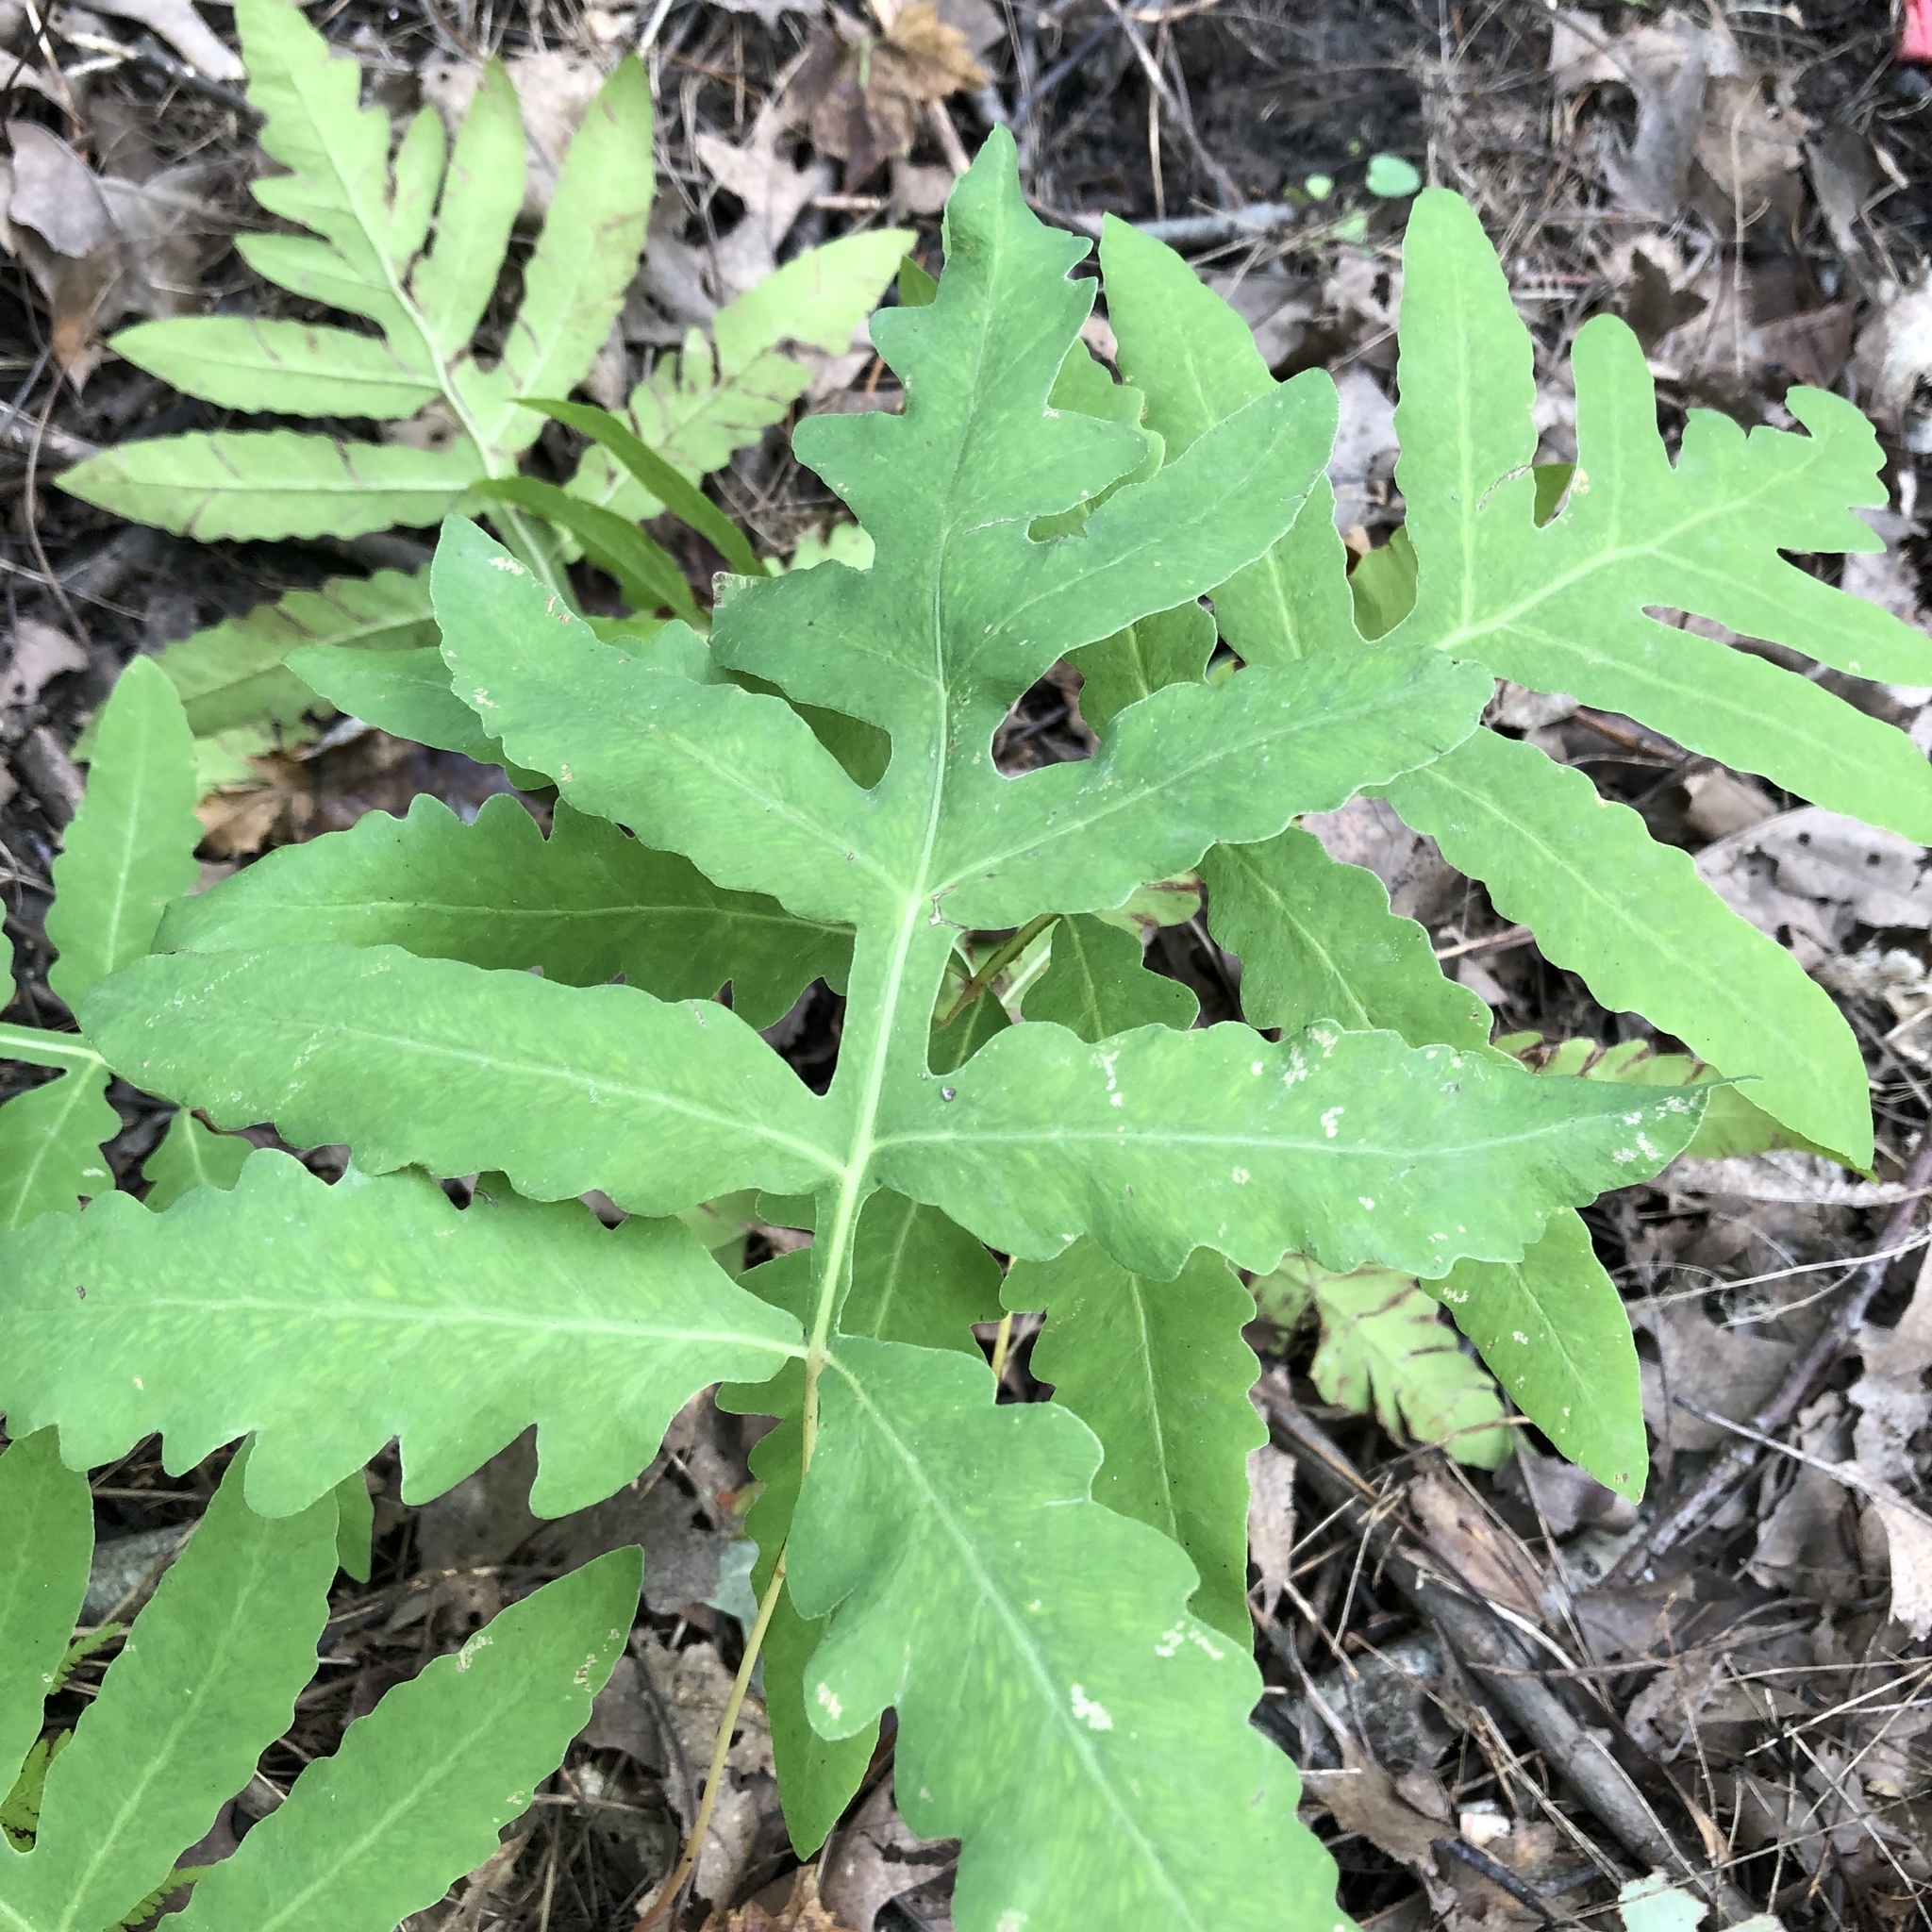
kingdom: Plantae
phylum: Tracheophyta
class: Polypodiopsida
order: Polypodiales
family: Onocleaceae
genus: Onoclea
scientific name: Onoclea sensibilis
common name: Sensitive fern
